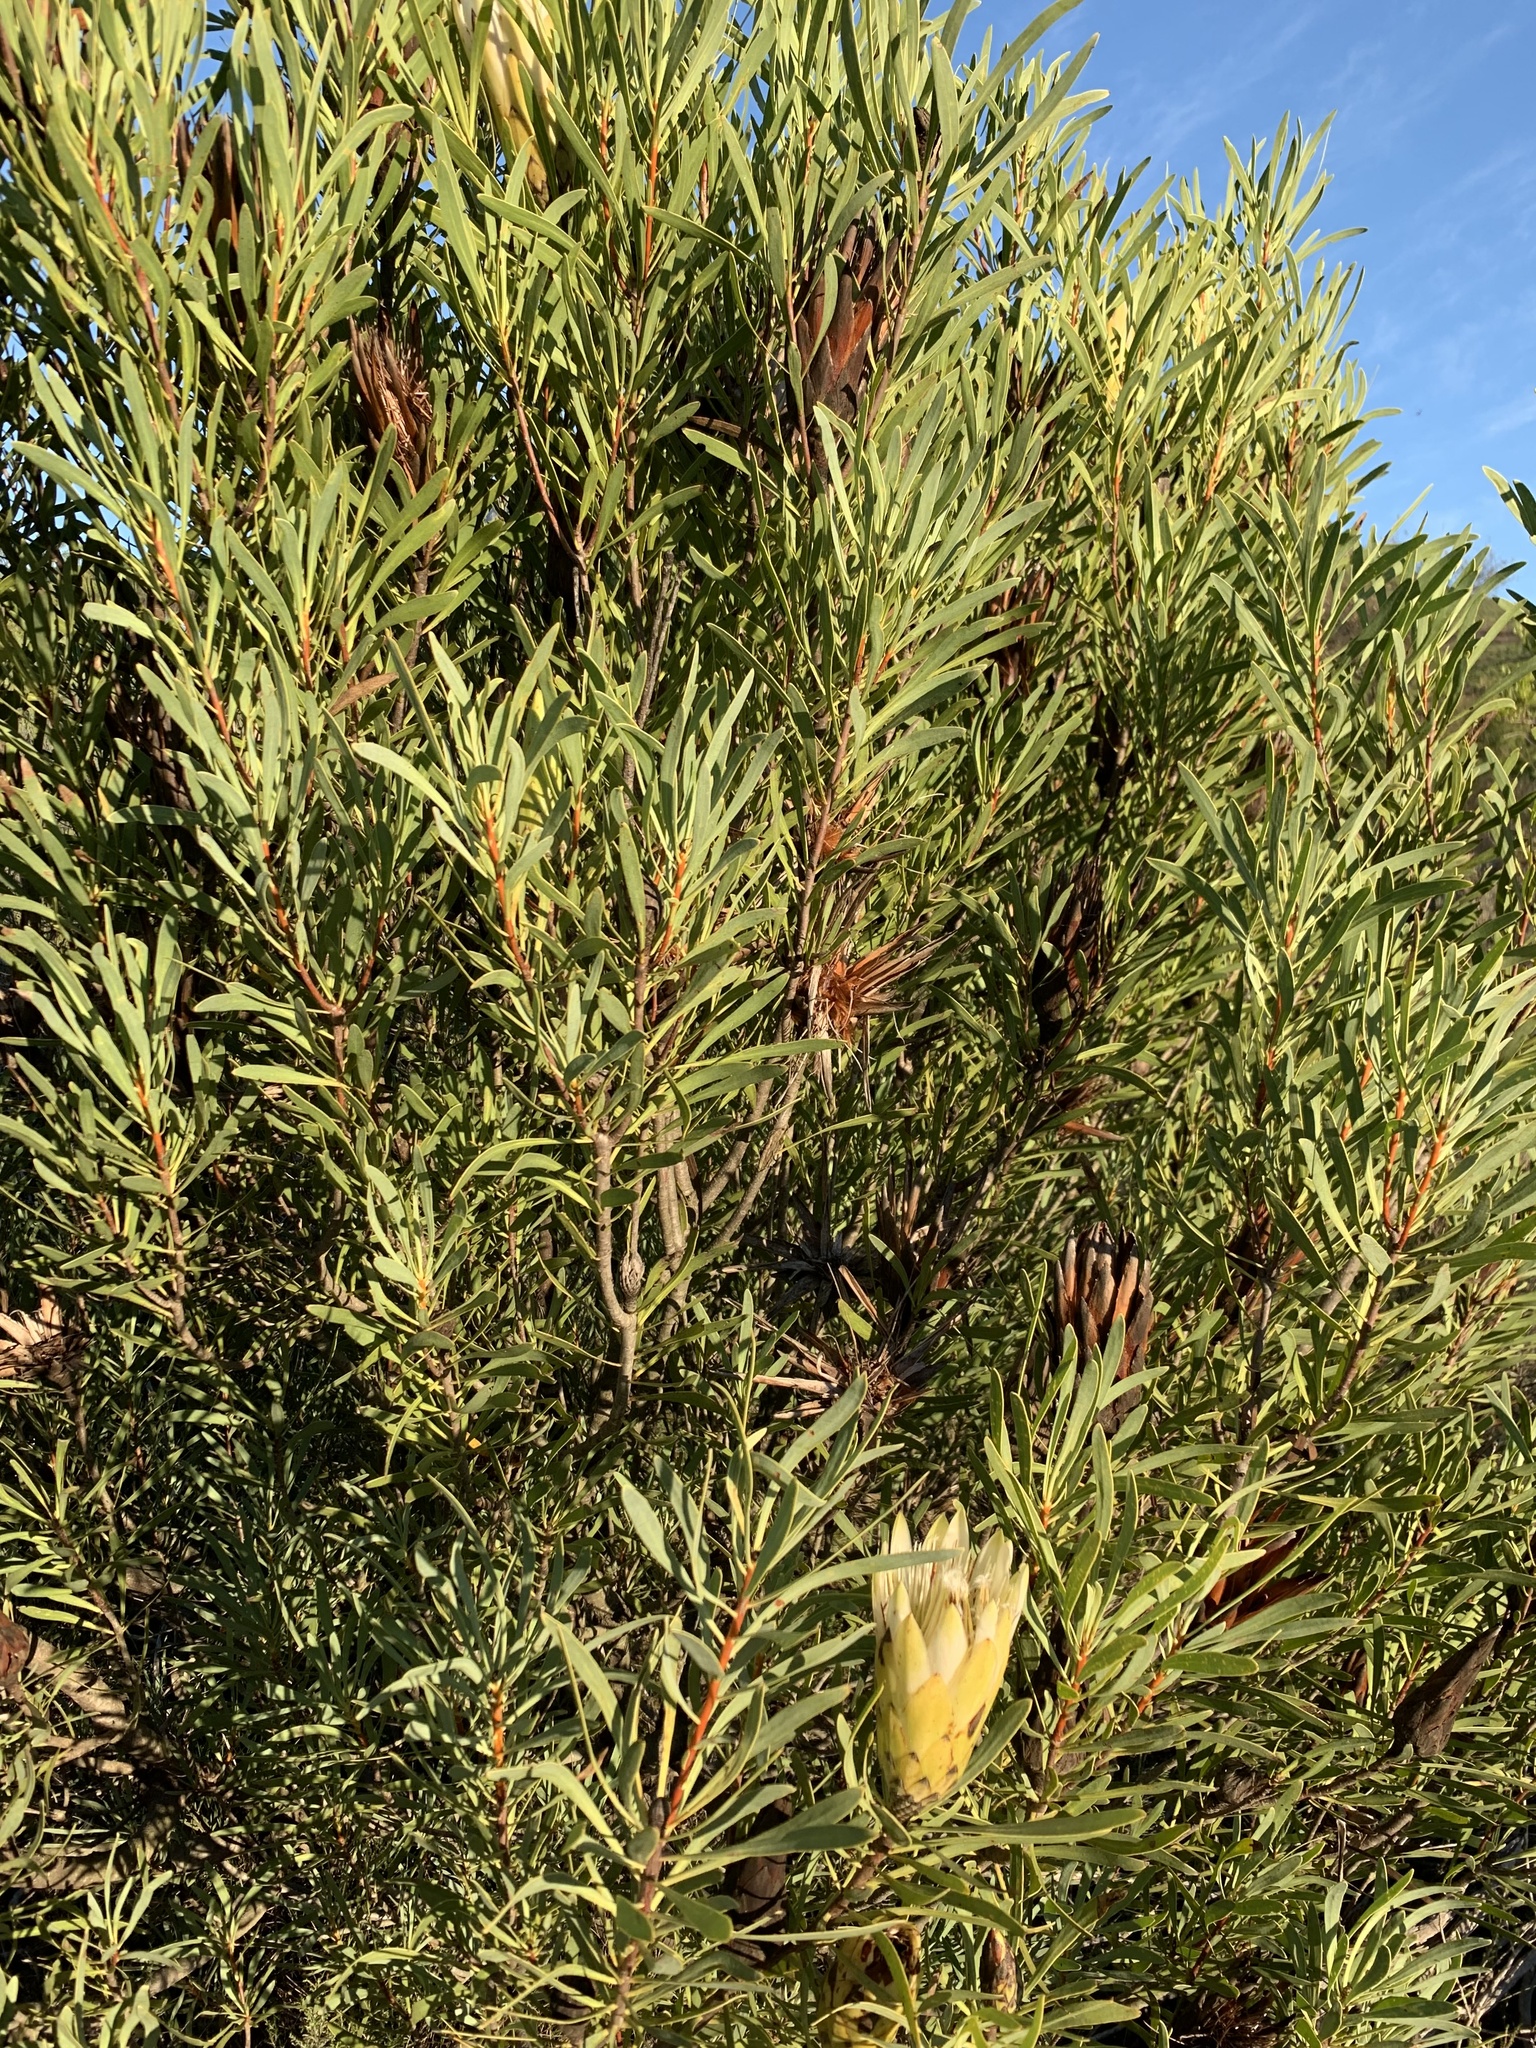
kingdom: Plantae
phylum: Tracheophyta
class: Magnoliopsida
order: Proteales
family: Proteaceae
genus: Protea
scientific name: Protea repens
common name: Sugarbush
